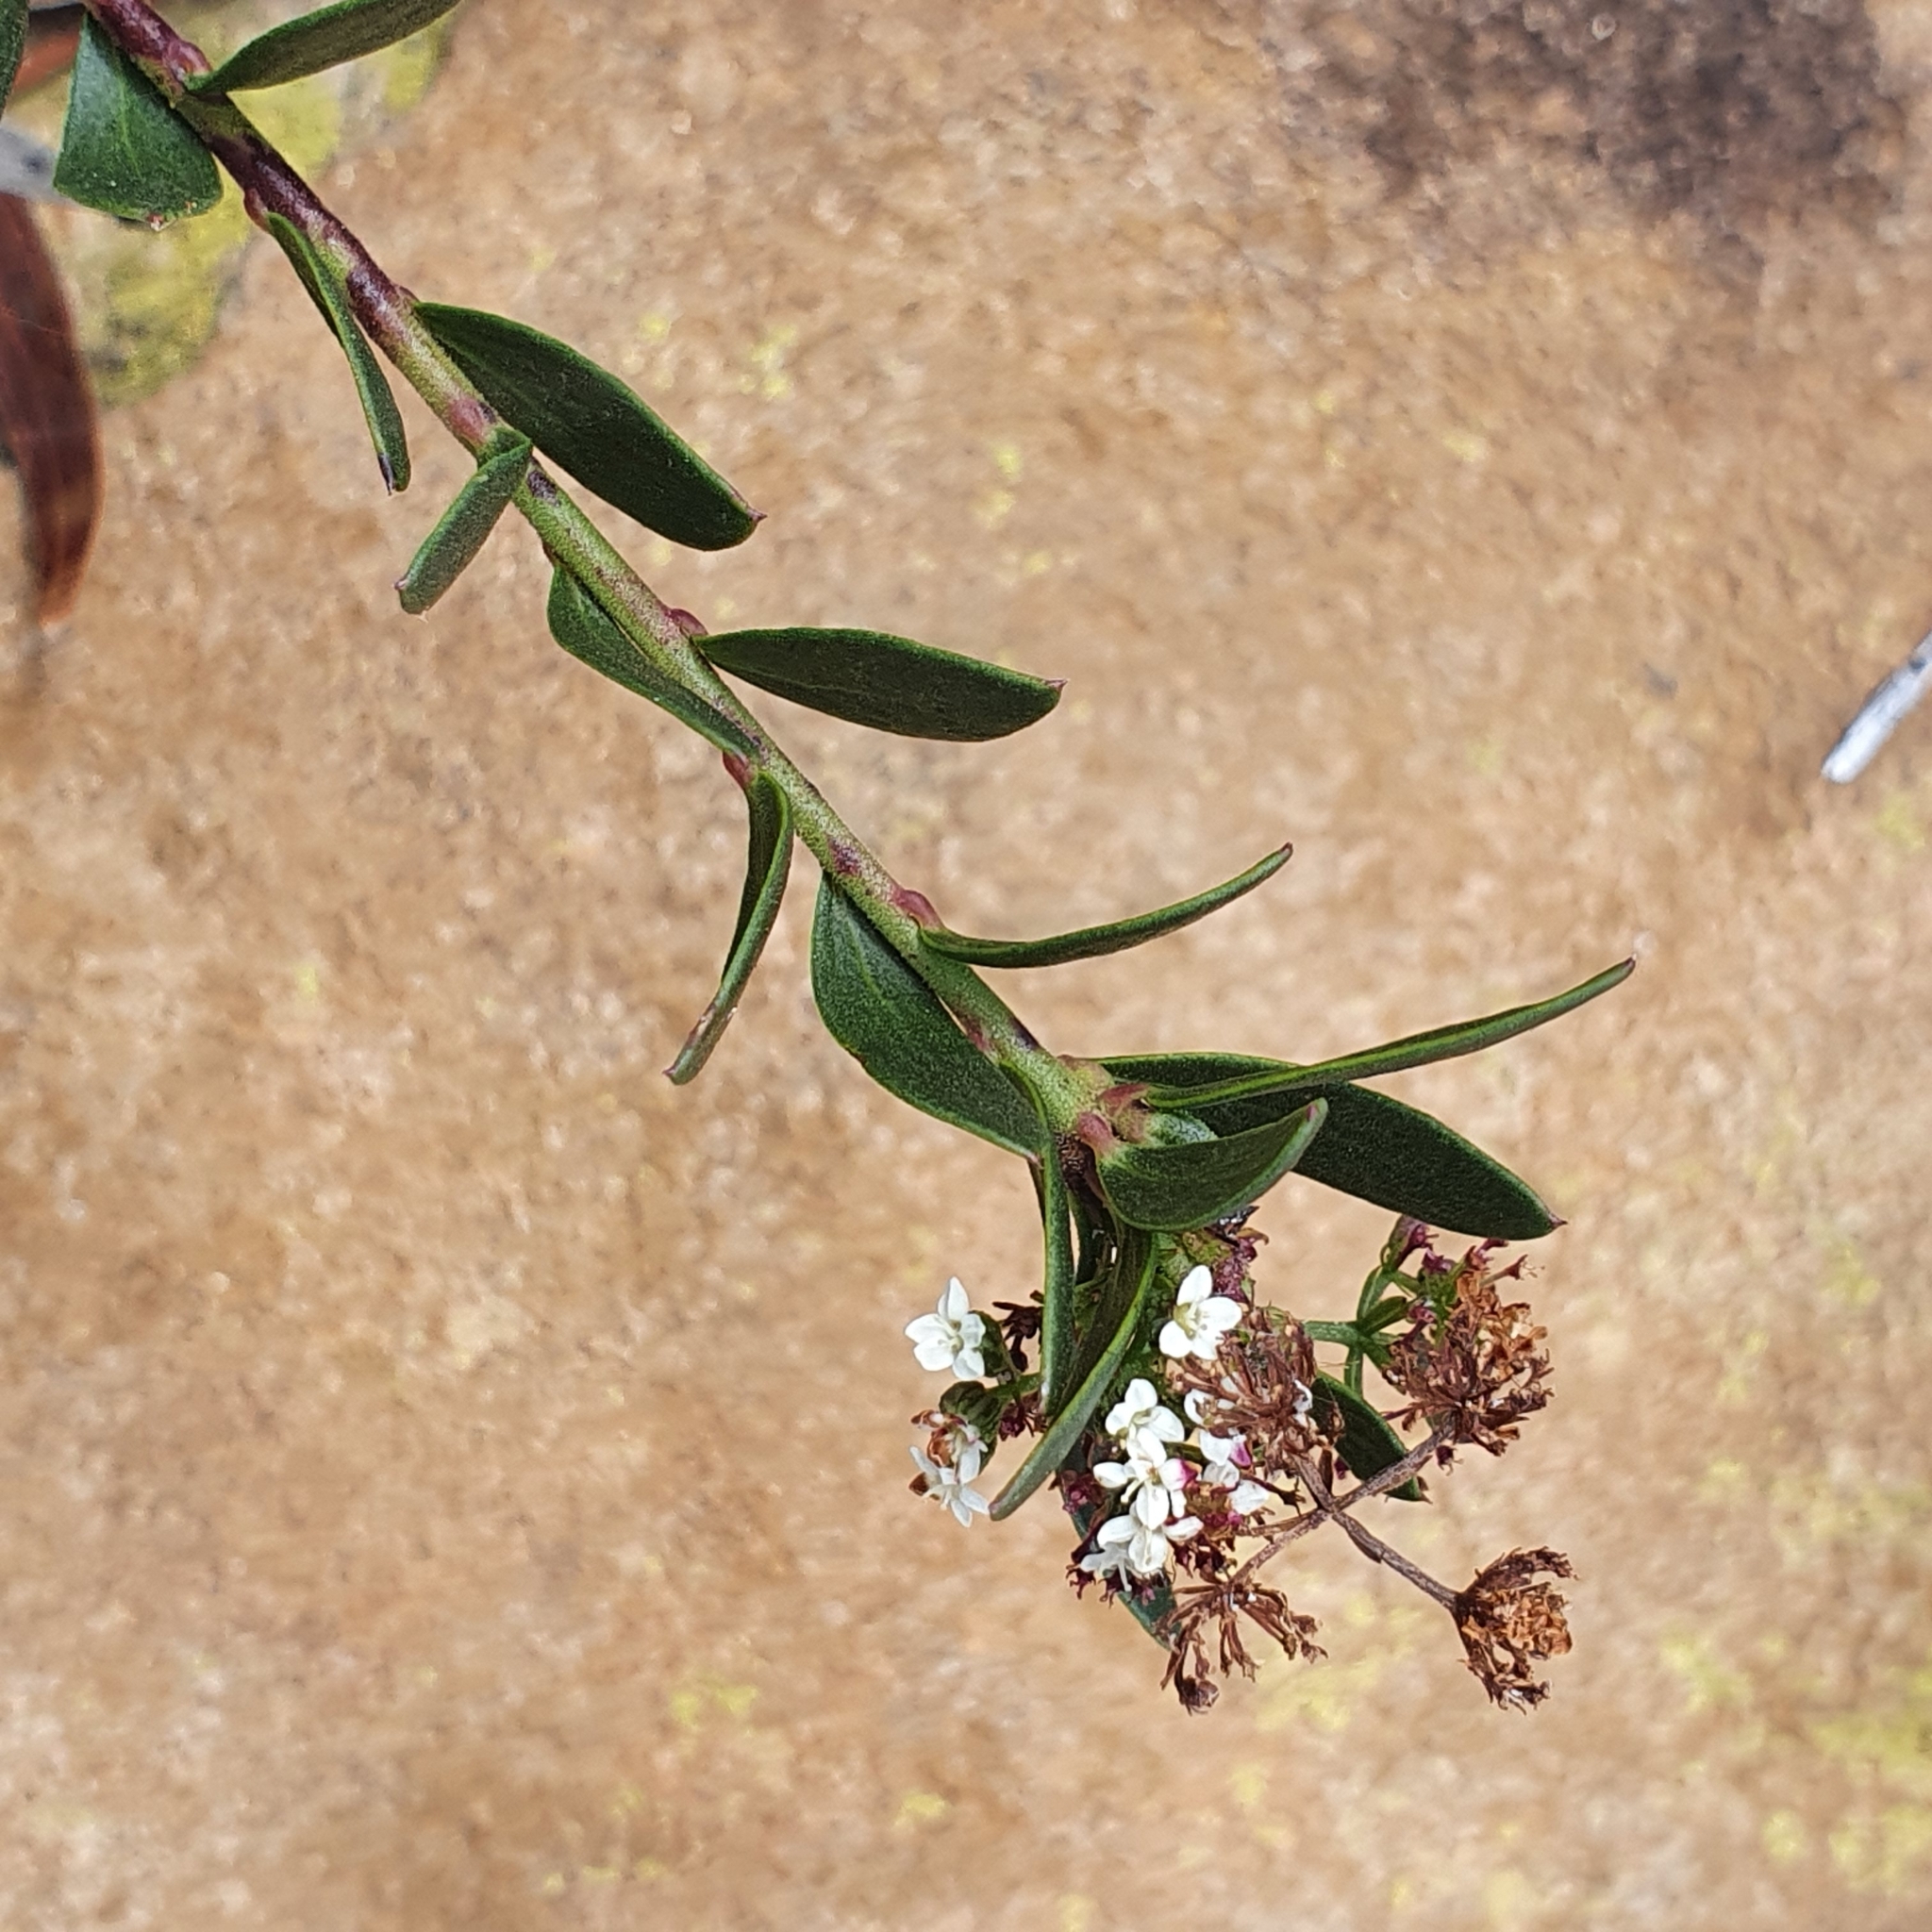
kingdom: Plantae
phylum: Tracheophyta
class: Magnoliopsida
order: Apiales
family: Apiaceae
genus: Platysace
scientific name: Platysace lanceolata
